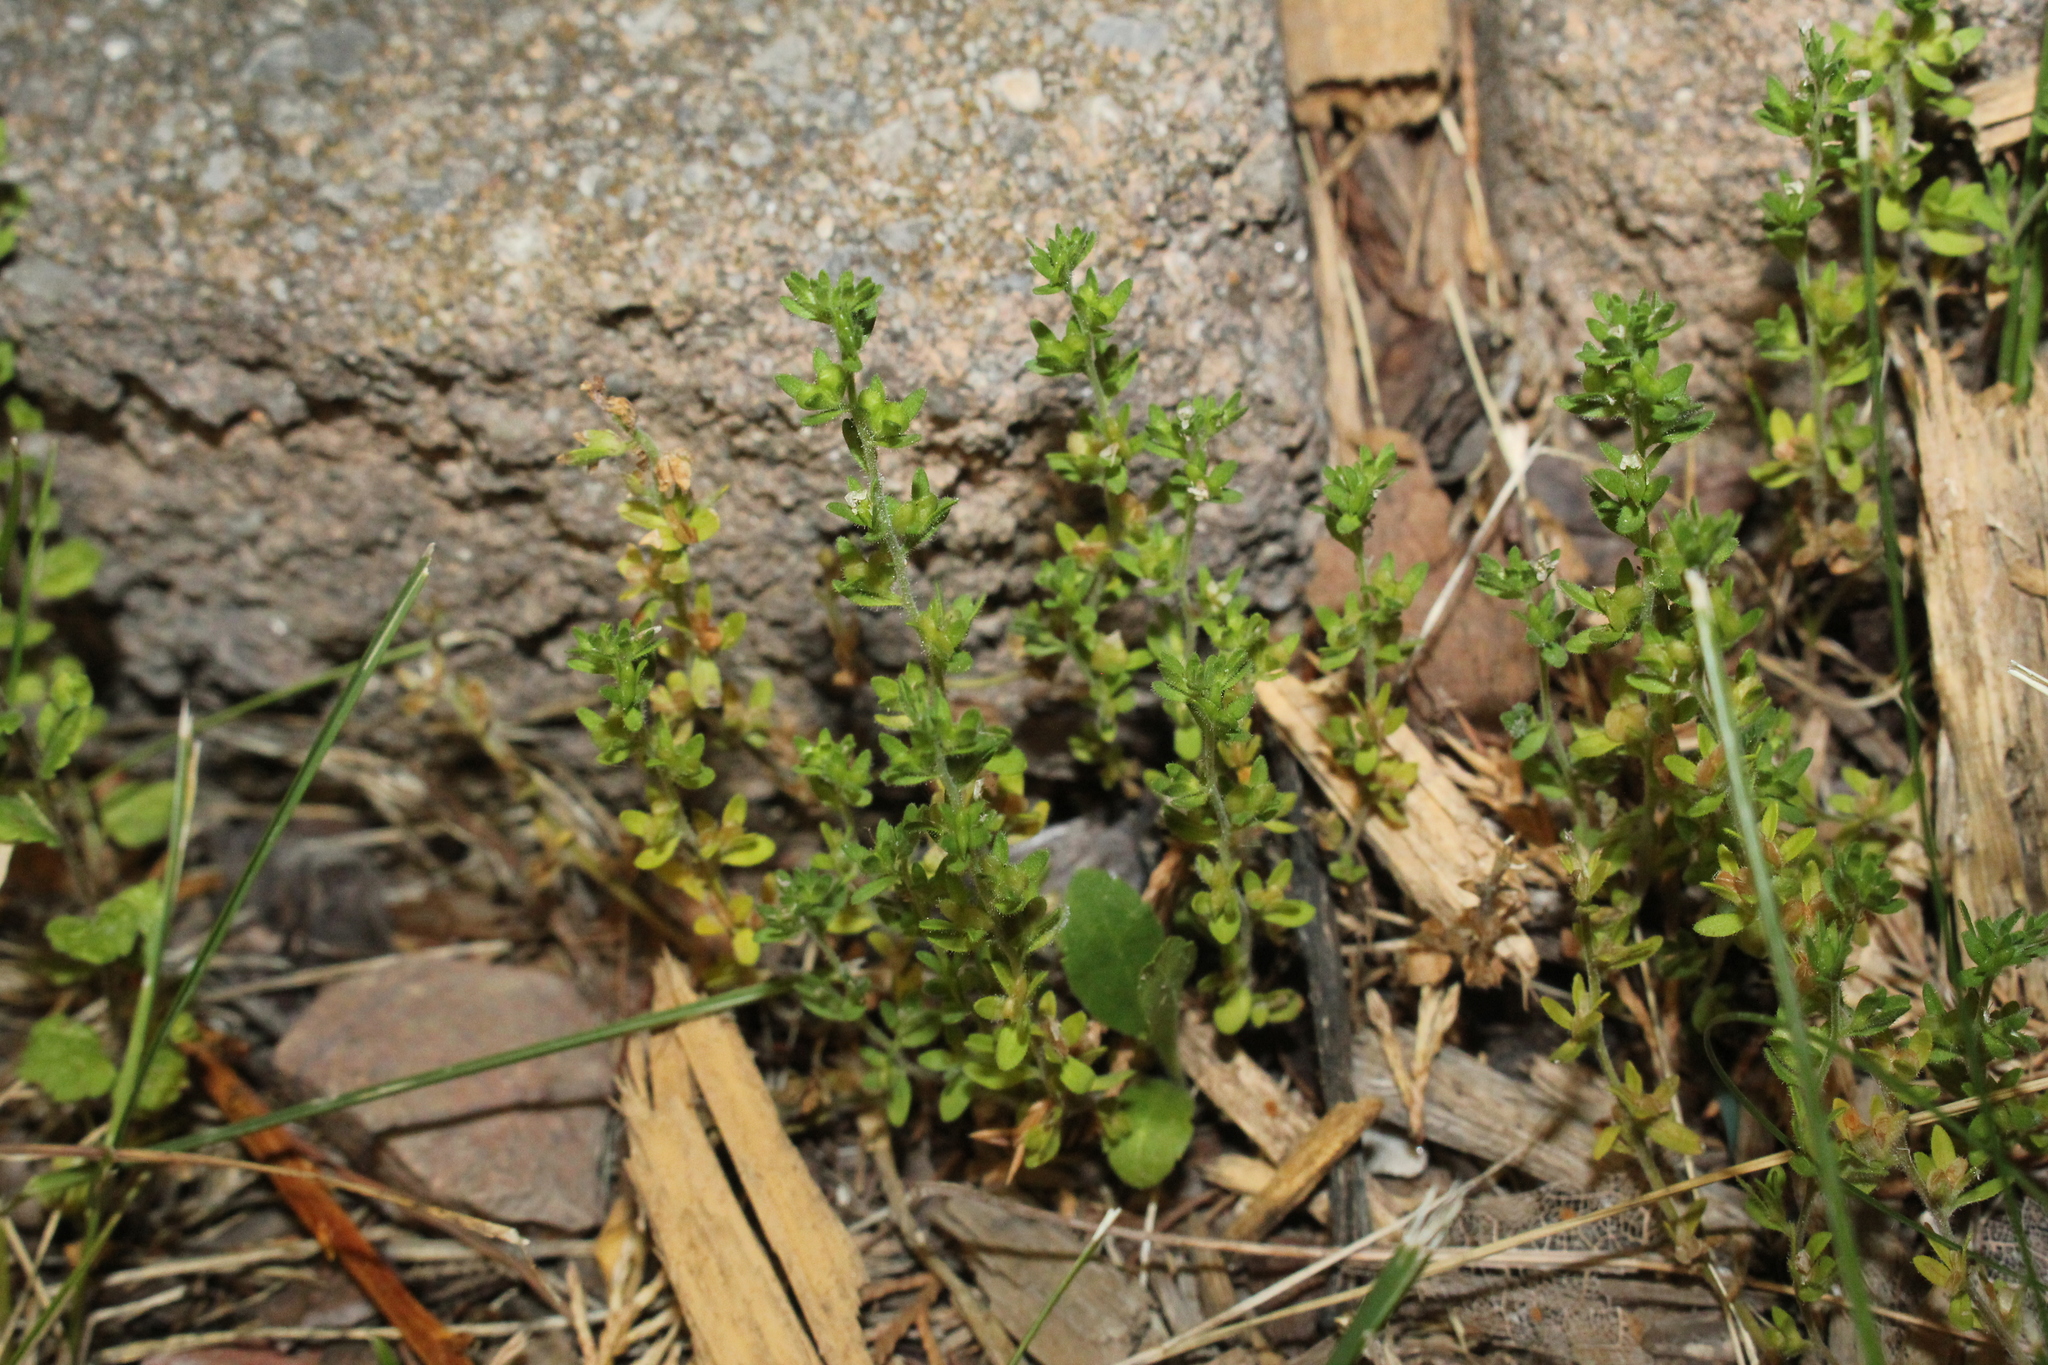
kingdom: Plantae
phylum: Tracheophyta
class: Magnoliopsida
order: Lamiales
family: Plantaginaceae
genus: Veronica
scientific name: Veronica arvensis
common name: Corn speedwell
